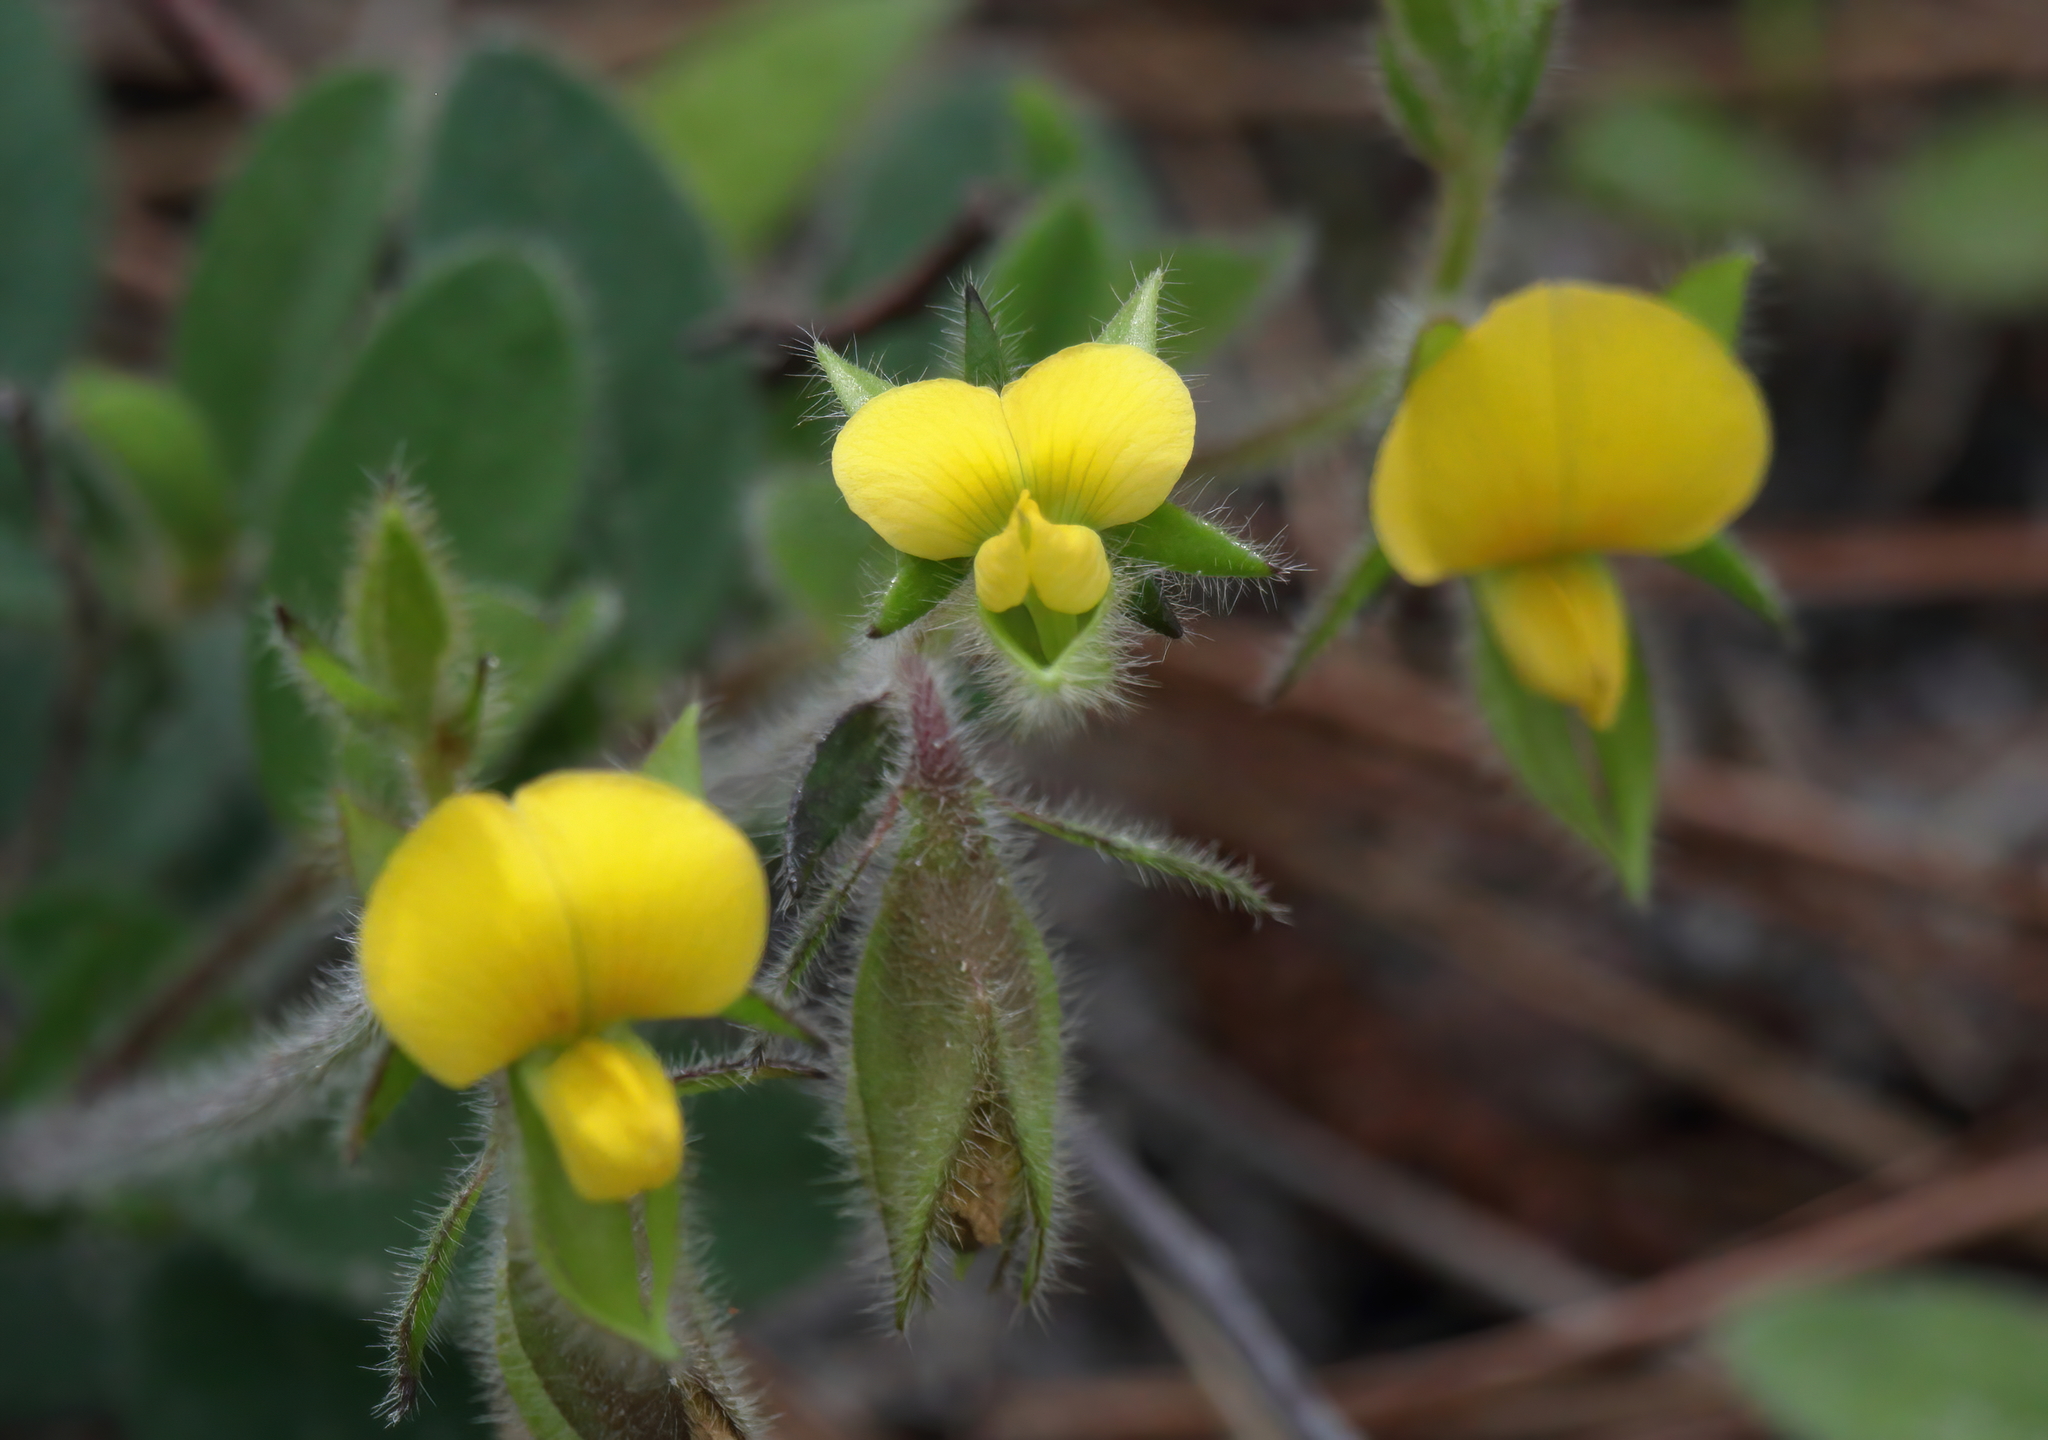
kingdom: Plantae
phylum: Tracheophyta
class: Magnoliopsida
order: Fabales
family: Fabaceae
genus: Crotalaria
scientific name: Crotalaria rotundifolia
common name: Prostrate rattlebox
